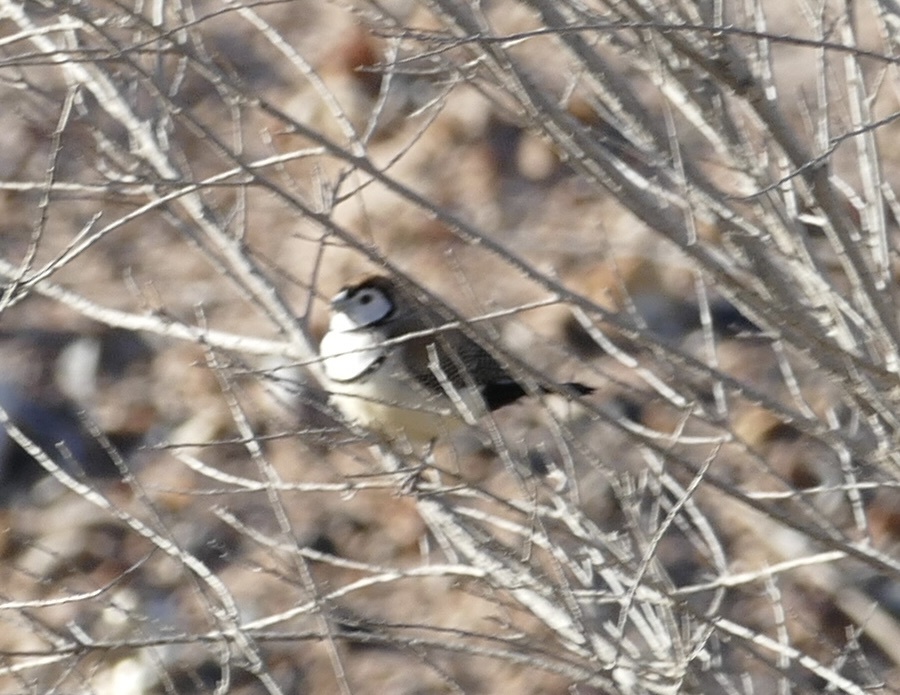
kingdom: Animalia
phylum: Chordata
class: Aves
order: Passeriformes
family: Estrildidae
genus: Taeniopygia
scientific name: Taeniopygia bichenovii
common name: Double-barred finch
